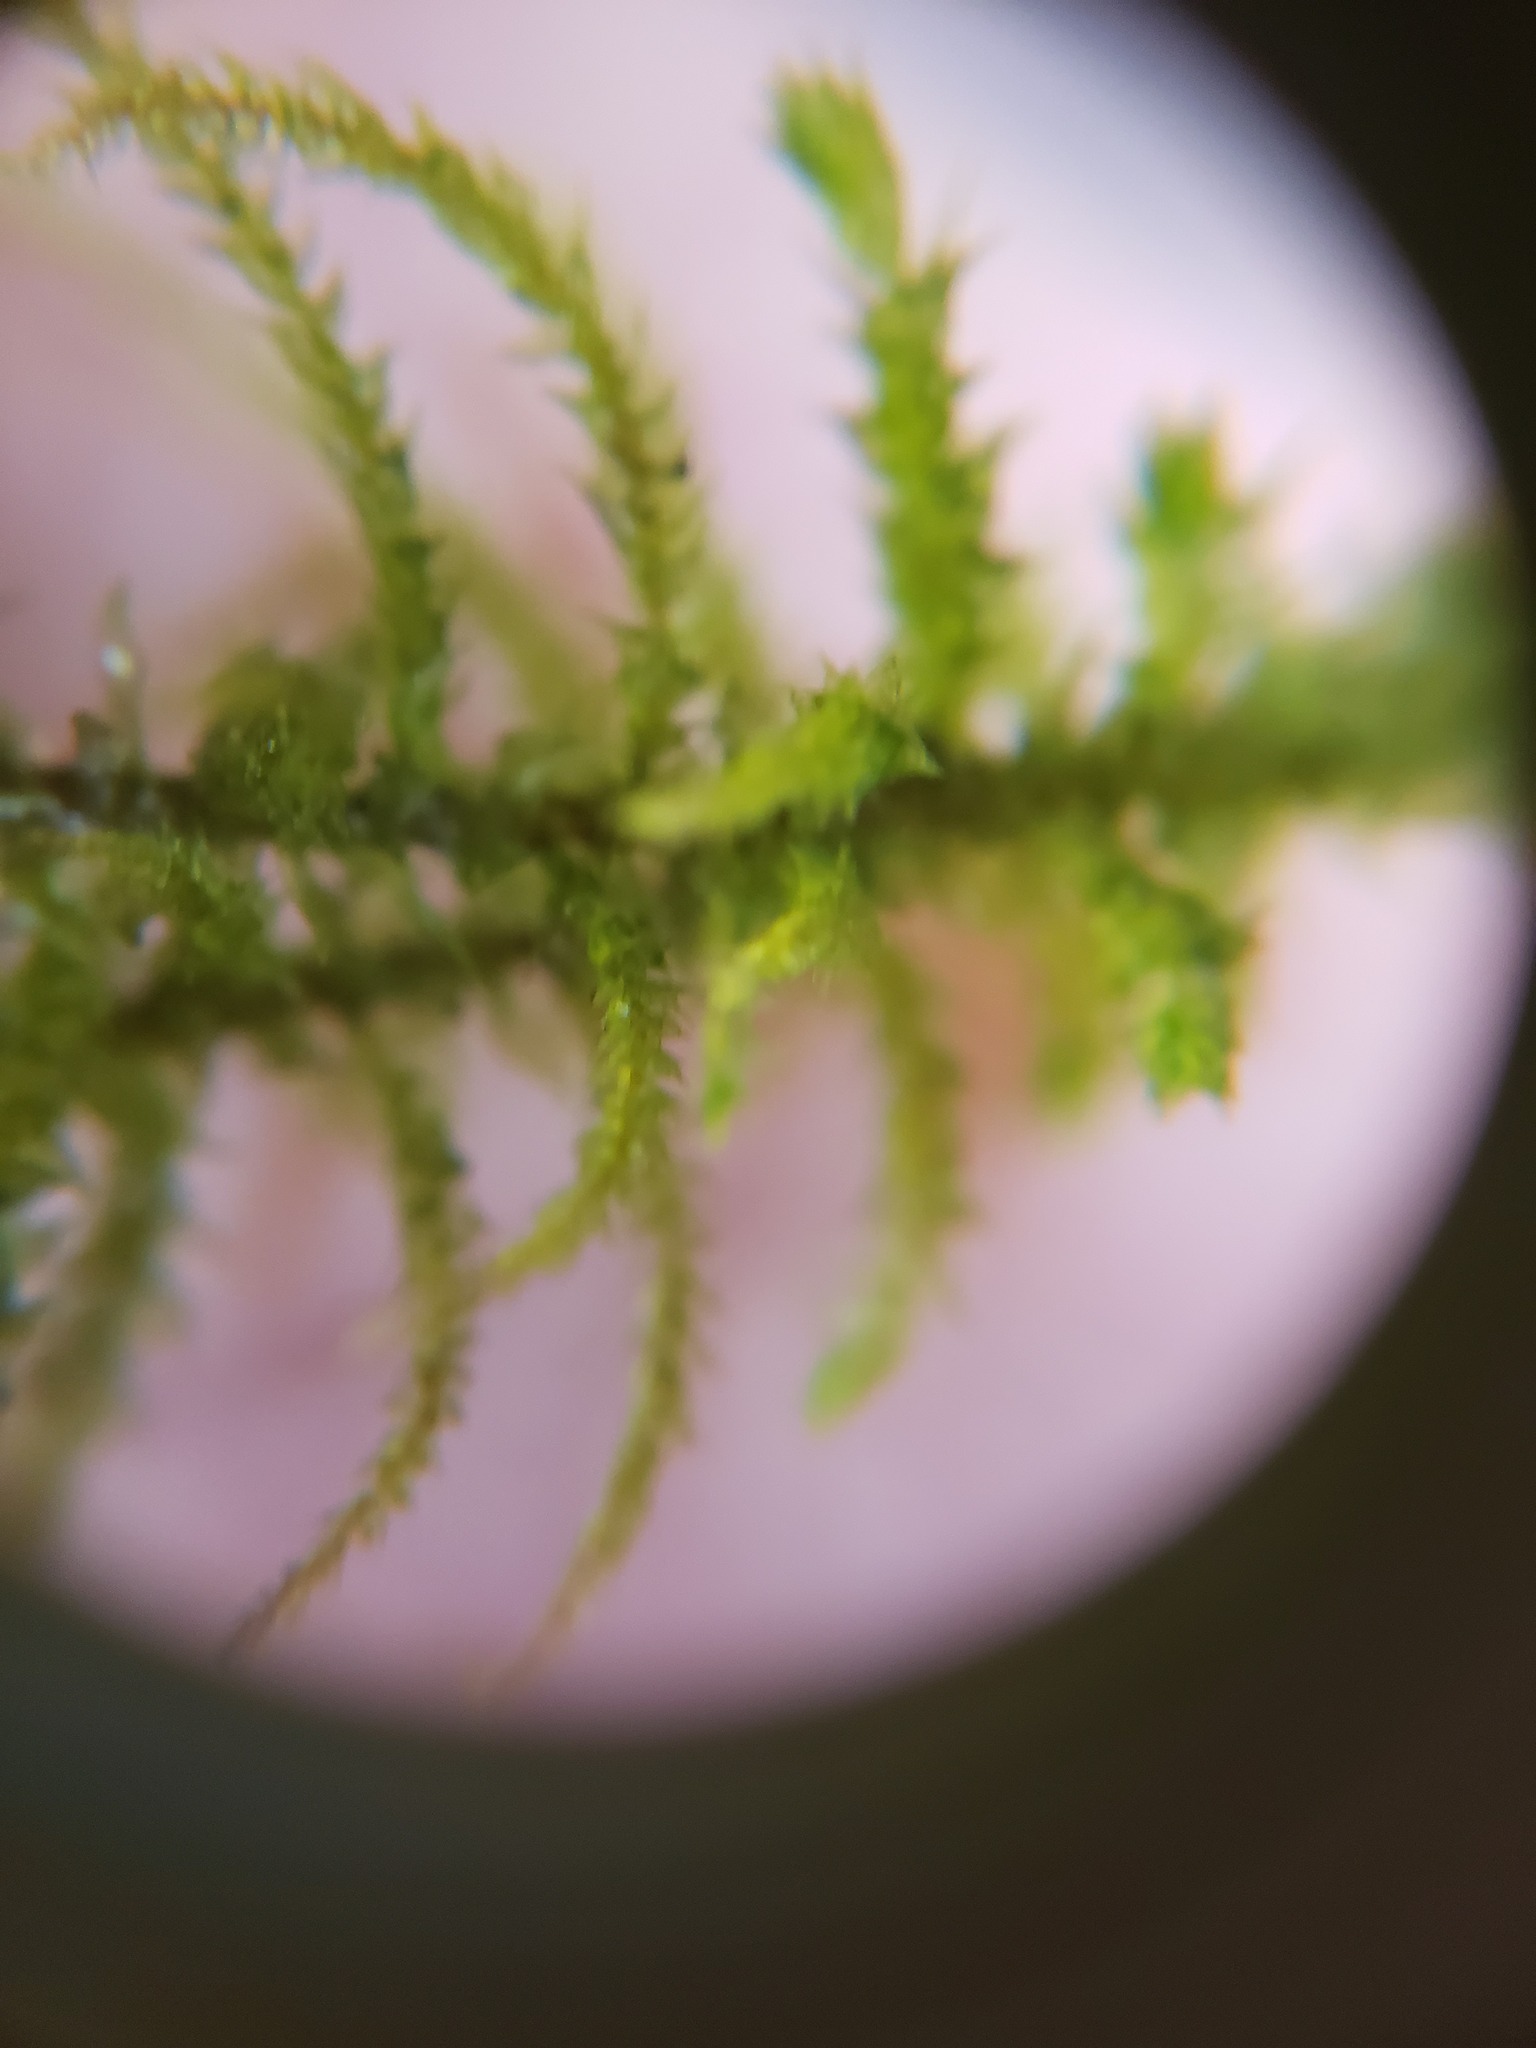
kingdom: Plantae
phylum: Bryophyta
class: Bryopsida
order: Hypnales
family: Hylocomiaceae
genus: Hylocomiadelphus
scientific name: Hylocomiadelphus triquetrus
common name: Rough goose neck moss
